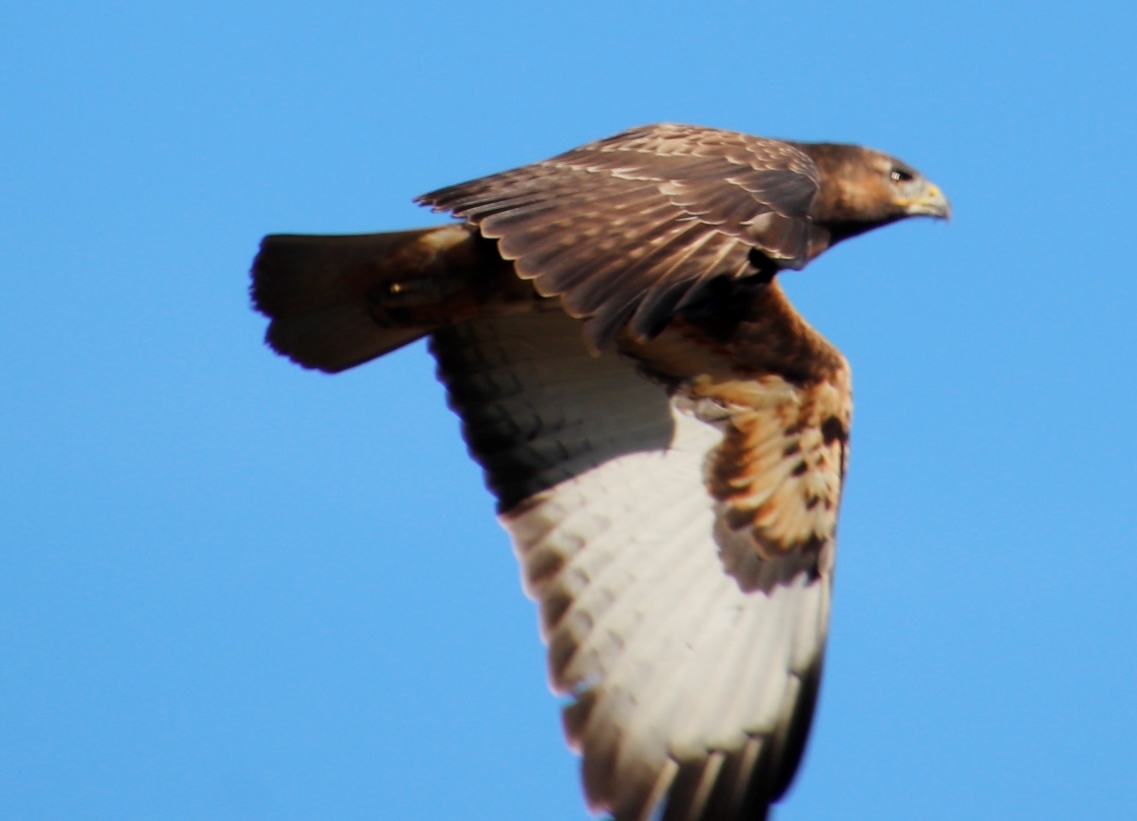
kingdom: Animalia
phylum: Chordata
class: Aves
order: Accipitriformes
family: Accipitridae
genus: Buteo
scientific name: Buteo rufofuscus
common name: Jackal buzzard
